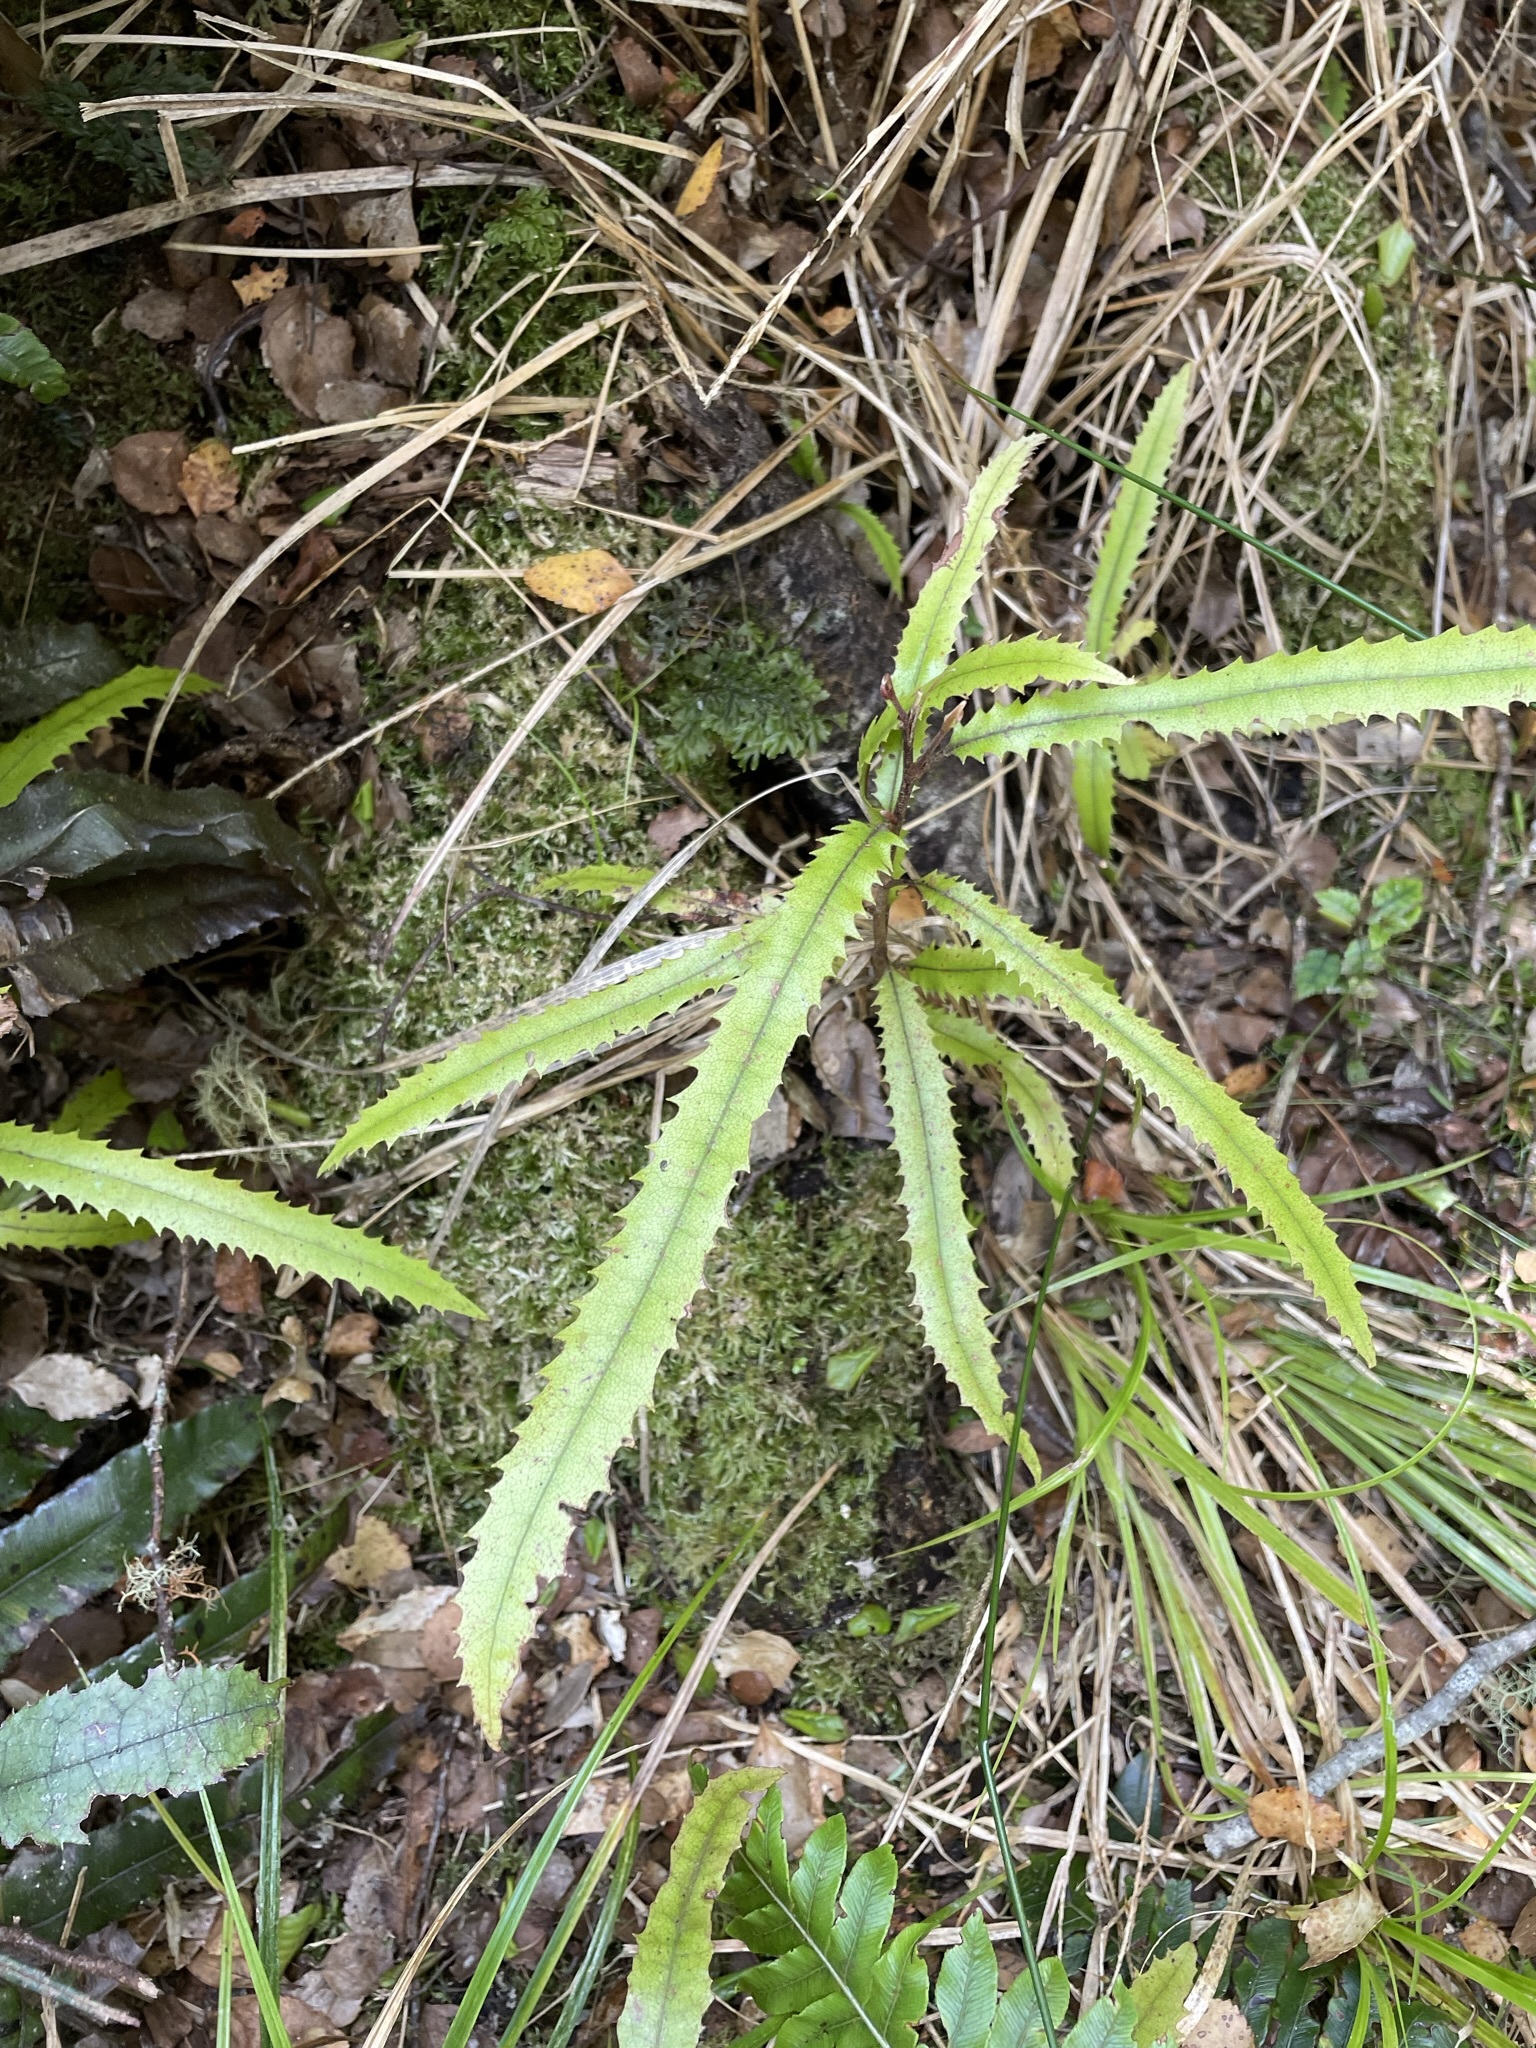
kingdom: Plantae
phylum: Tracheophyta
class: Magnoliopsida
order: Proteales
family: Proteaceae
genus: Knightia
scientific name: Knightia excelsa
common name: New zealand-honeysuckle
